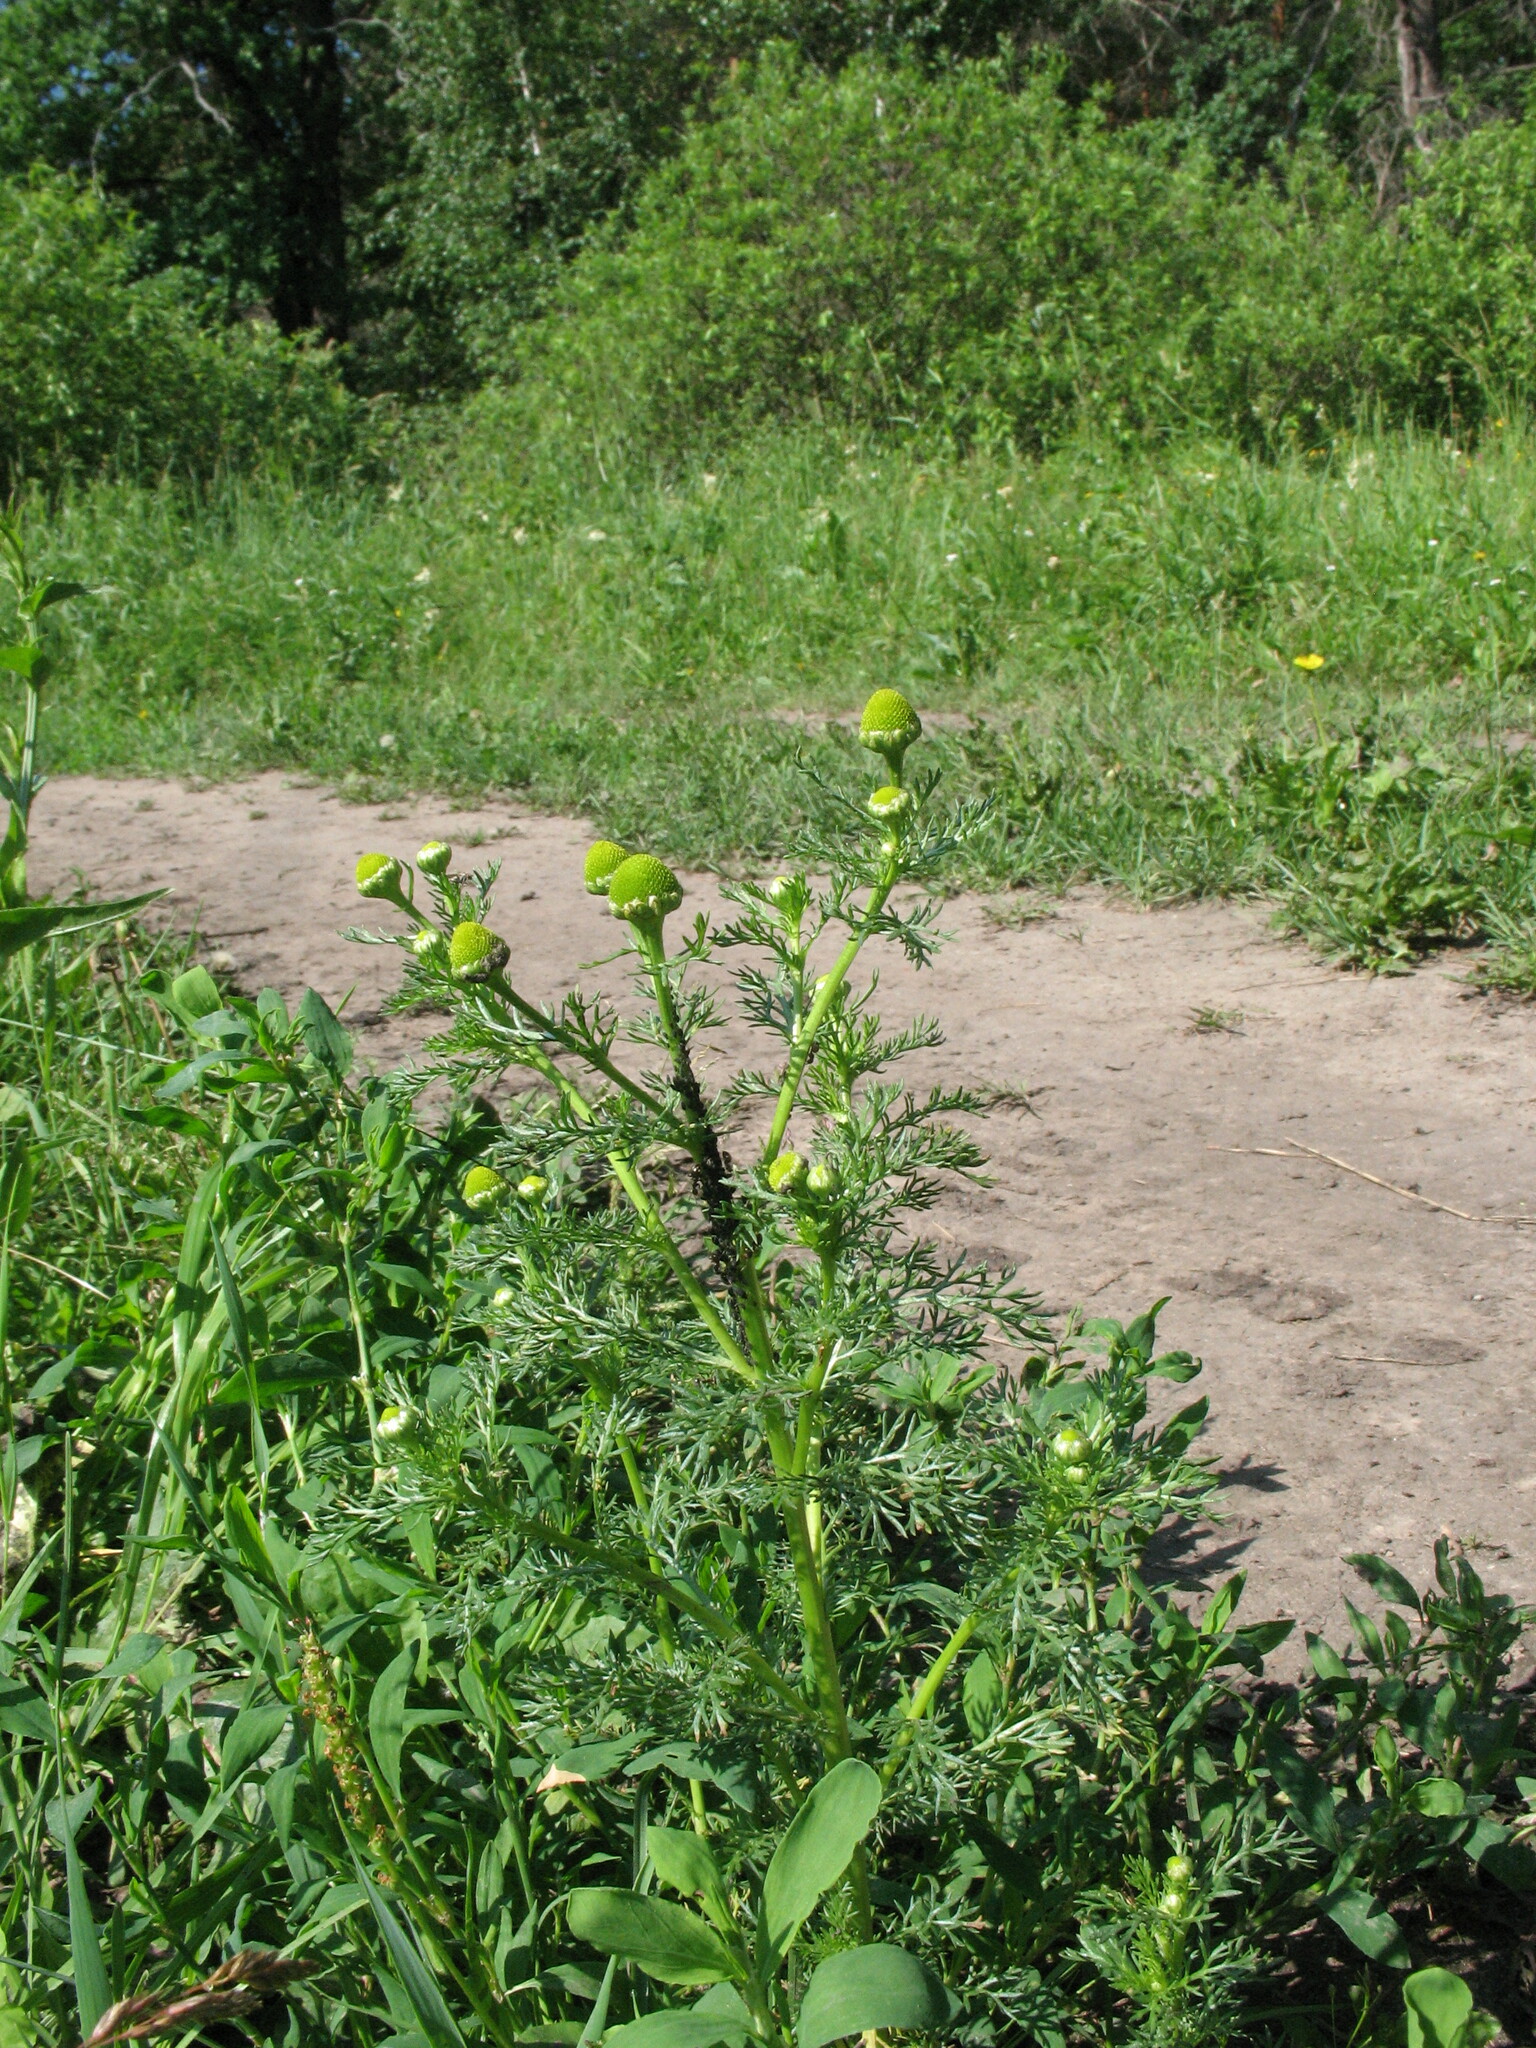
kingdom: Plantae
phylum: Tracheophyta
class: Magnoliopsida
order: Asterales
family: Asteraceae
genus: Matricaria
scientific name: Matricaria discoidea
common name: Disc mayweed
